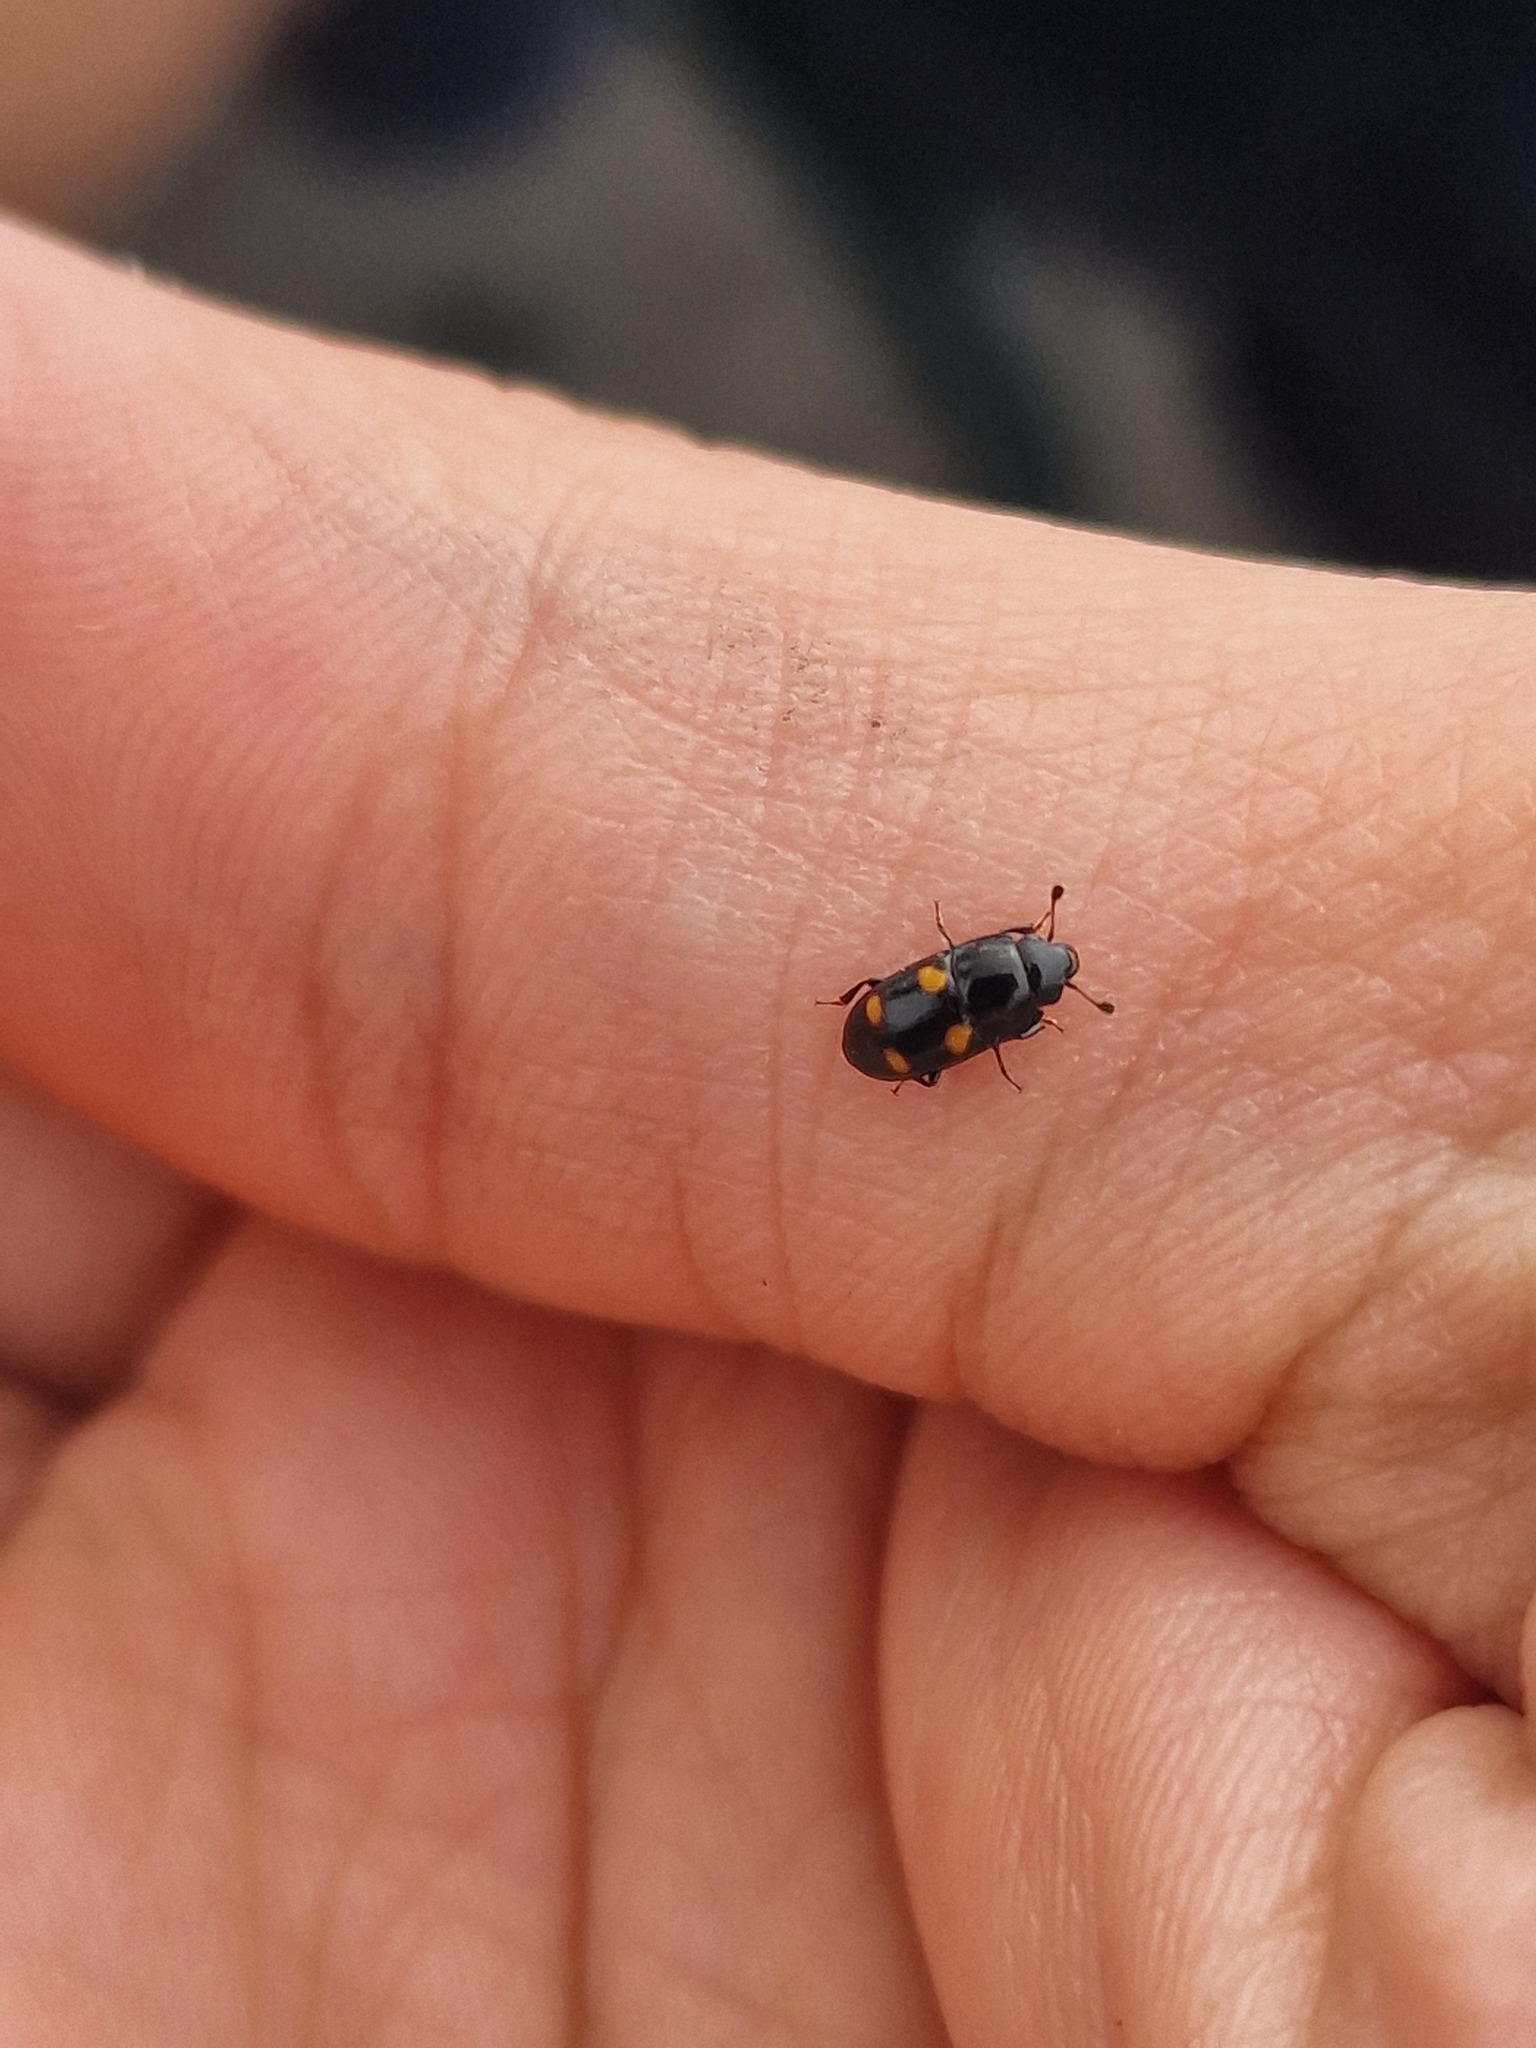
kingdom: Animalia
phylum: Arthropoda
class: Insecta
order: Coleoptera
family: Nitidulidae
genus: Glischrochilus
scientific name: Glischrochilus hortensis
